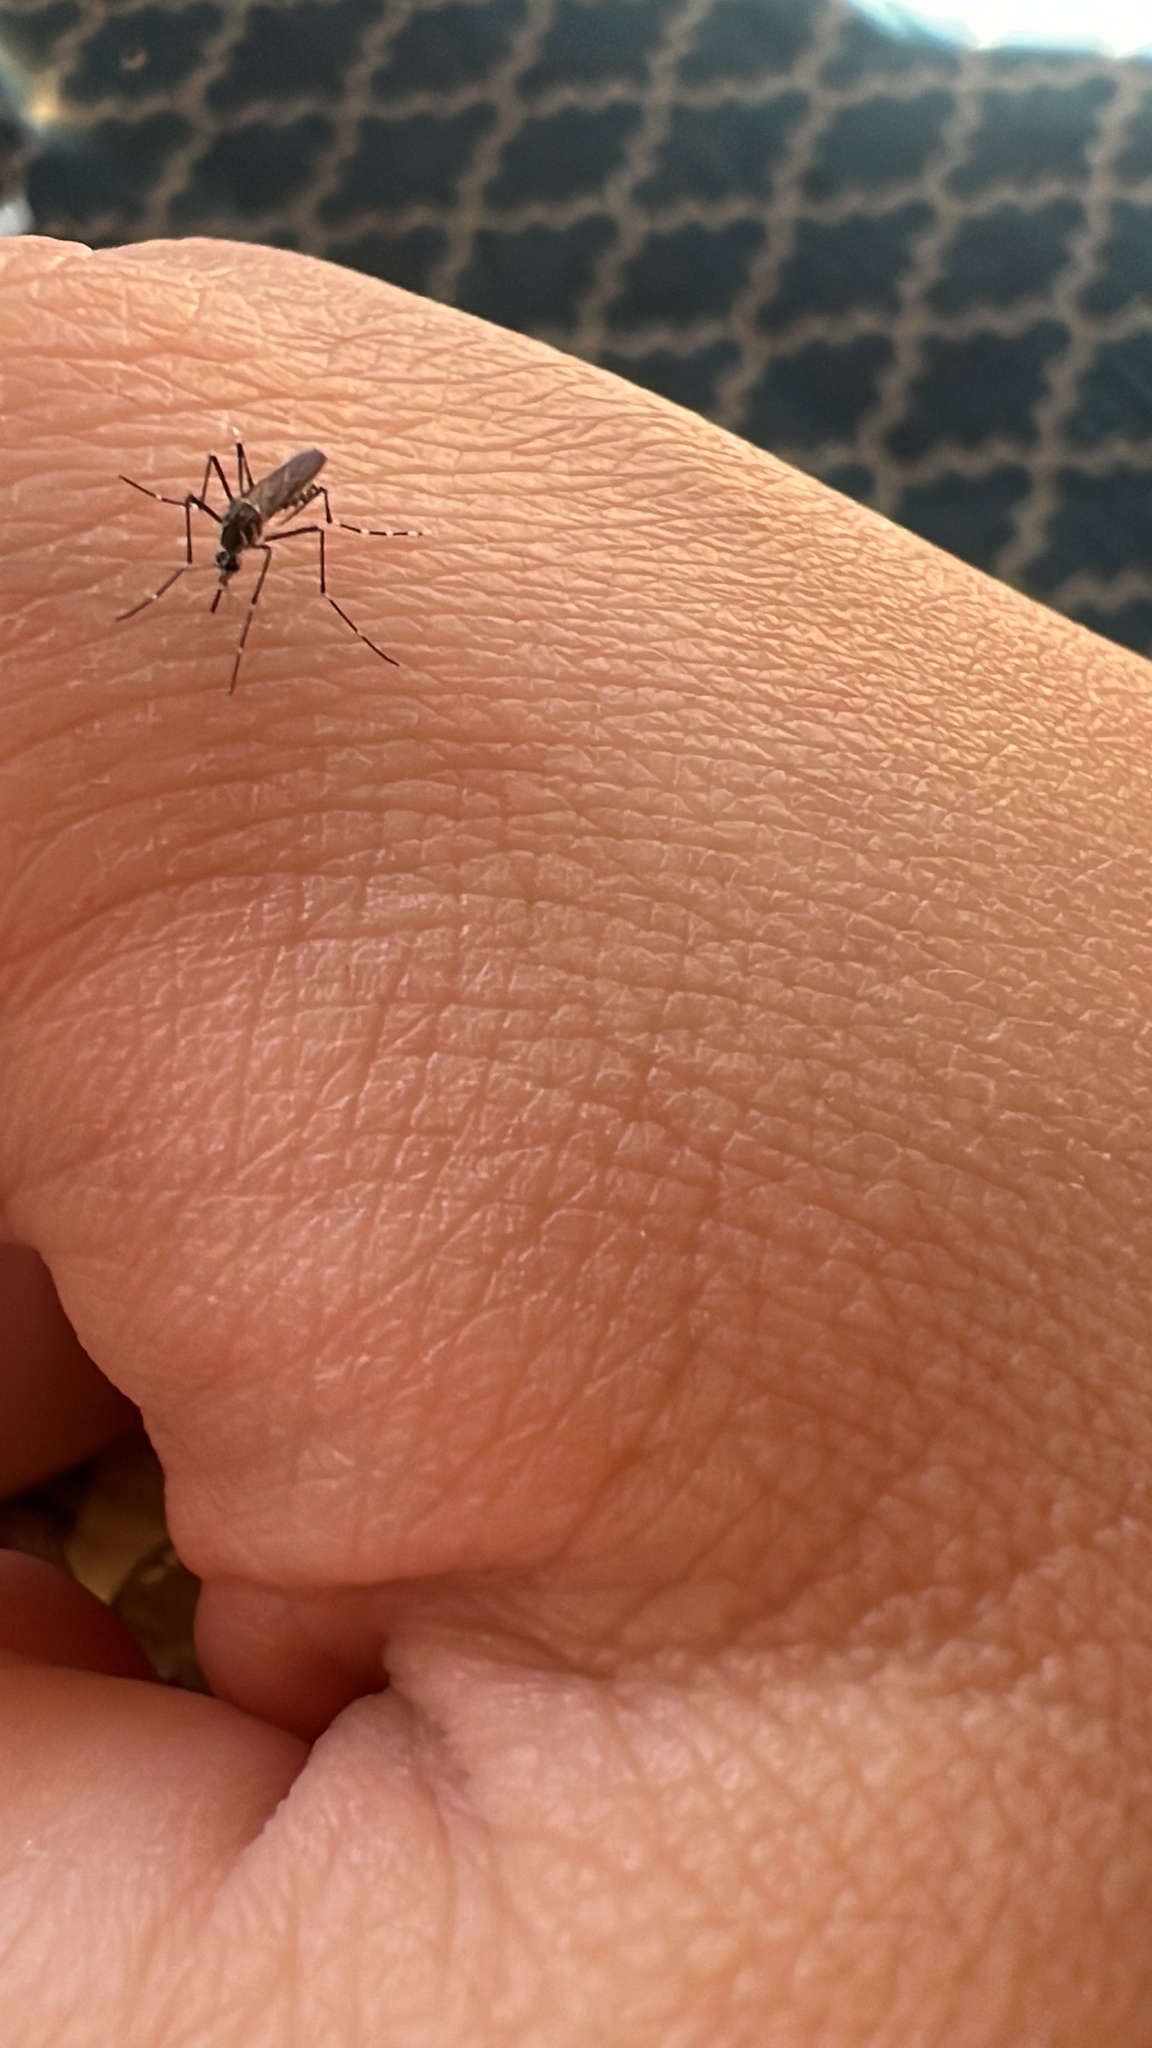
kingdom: Animalia
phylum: Arthropoda
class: Insecta
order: Diptera
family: Culicidae
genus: Aedes
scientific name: Aedes aegypti
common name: Yellow fever mosquito
